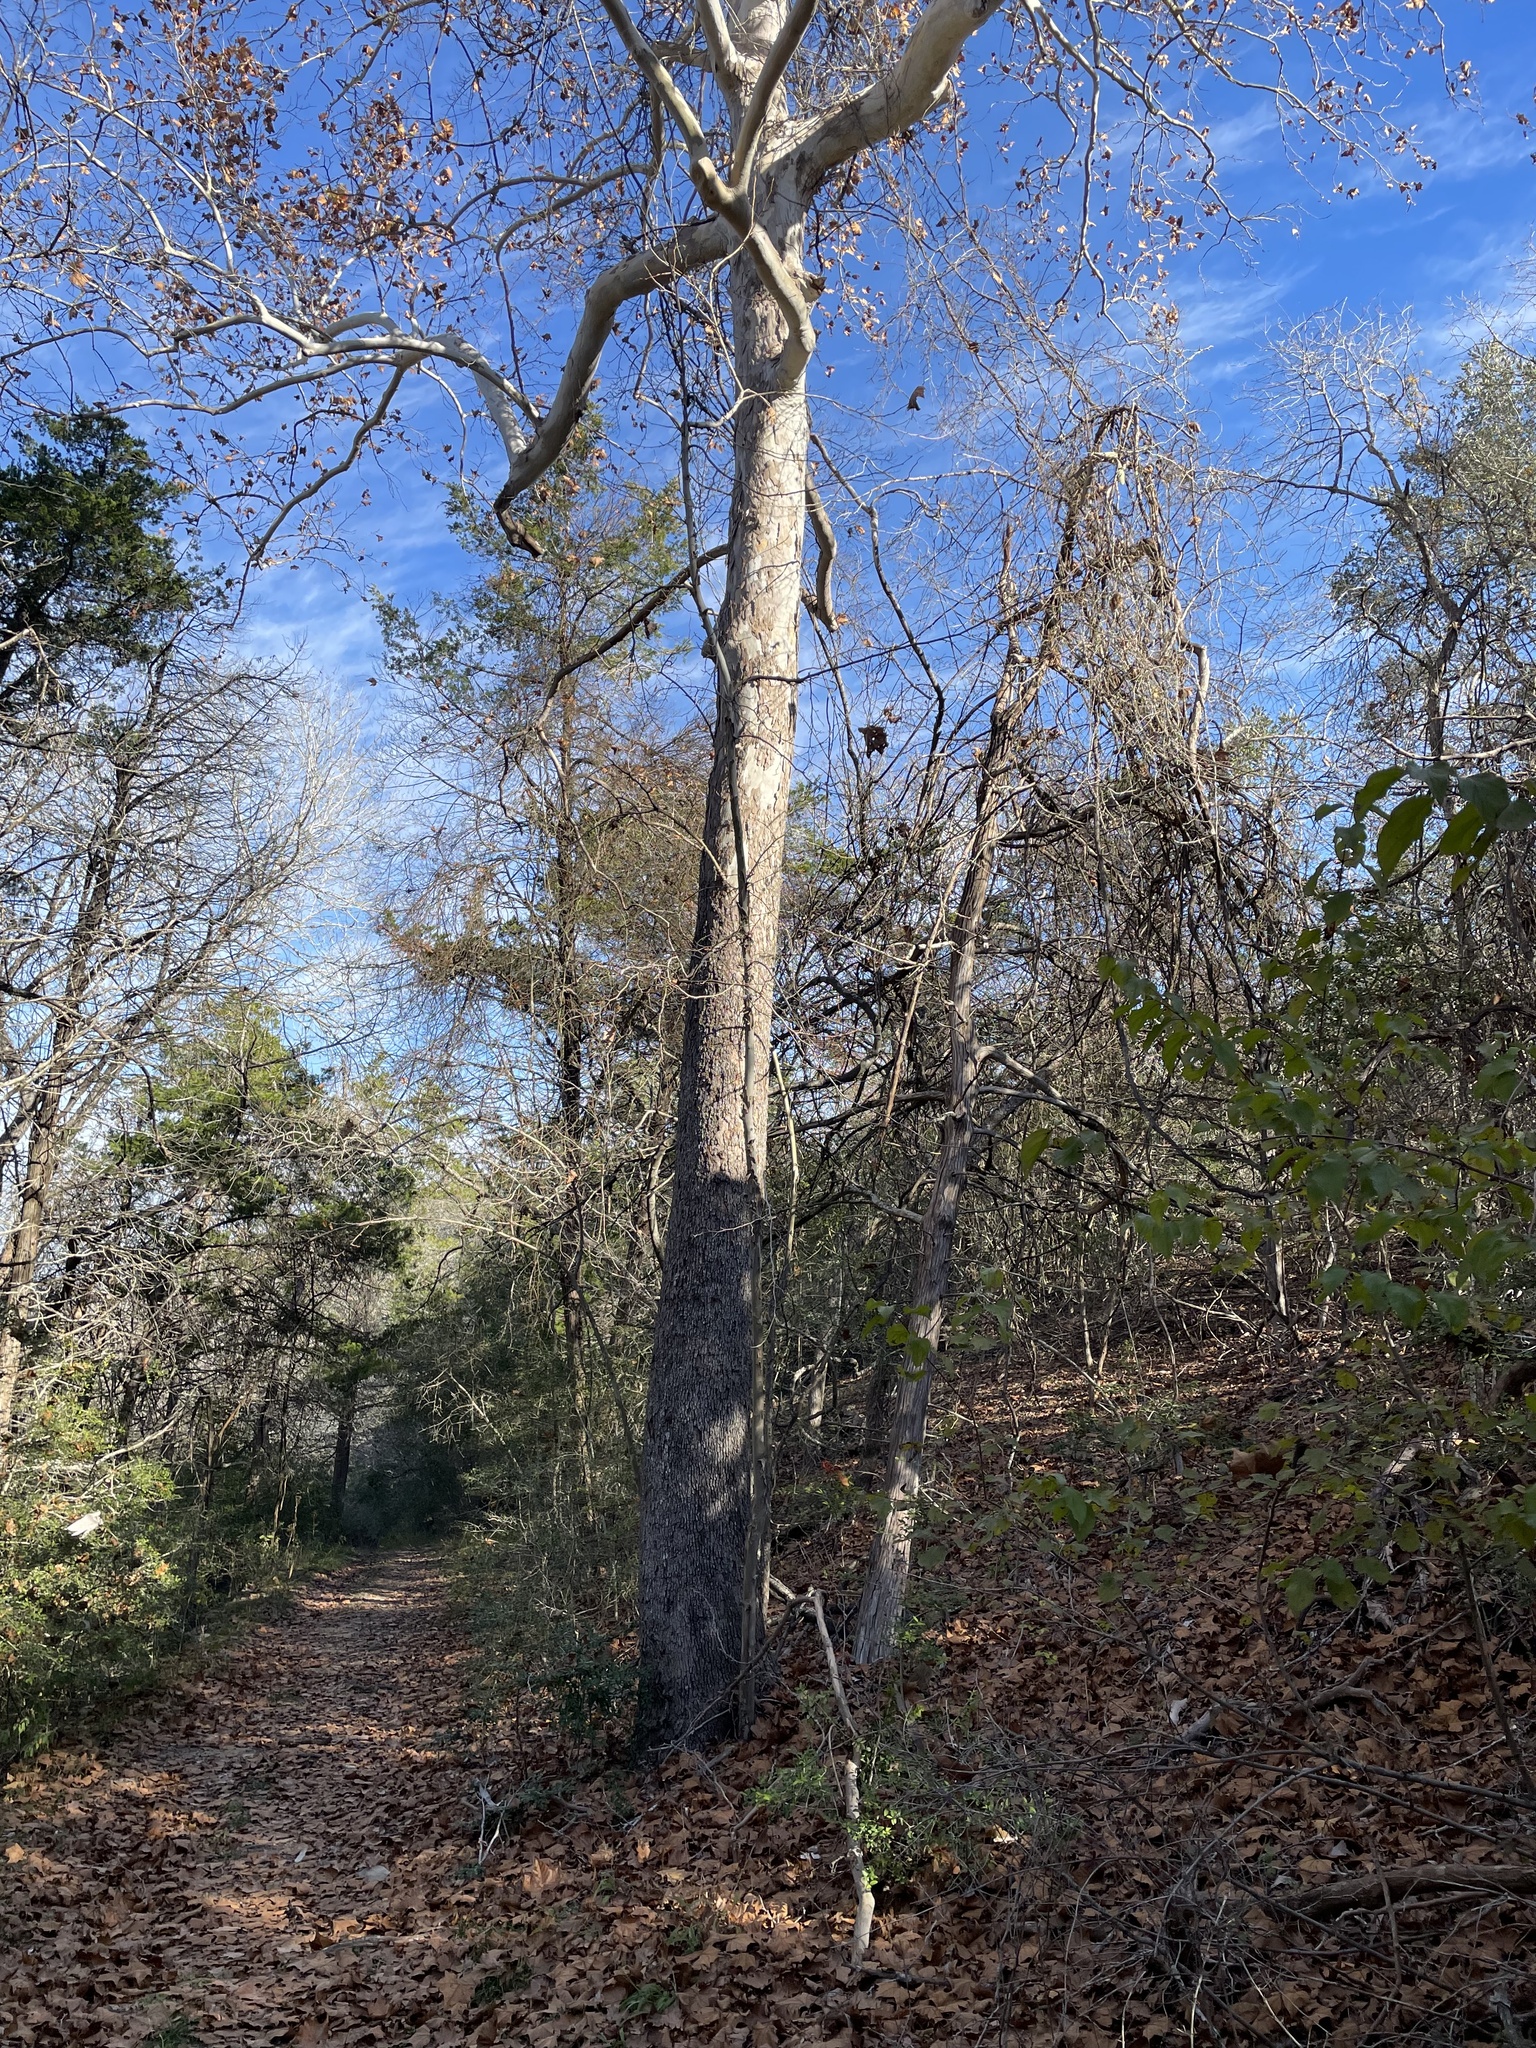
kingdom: Plantae
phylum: Tracheophyta
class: Magnoliopsida
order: Proteales
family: Platanaceae
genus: Platanus
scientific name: Platanus occidentalis
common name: American sycamore
